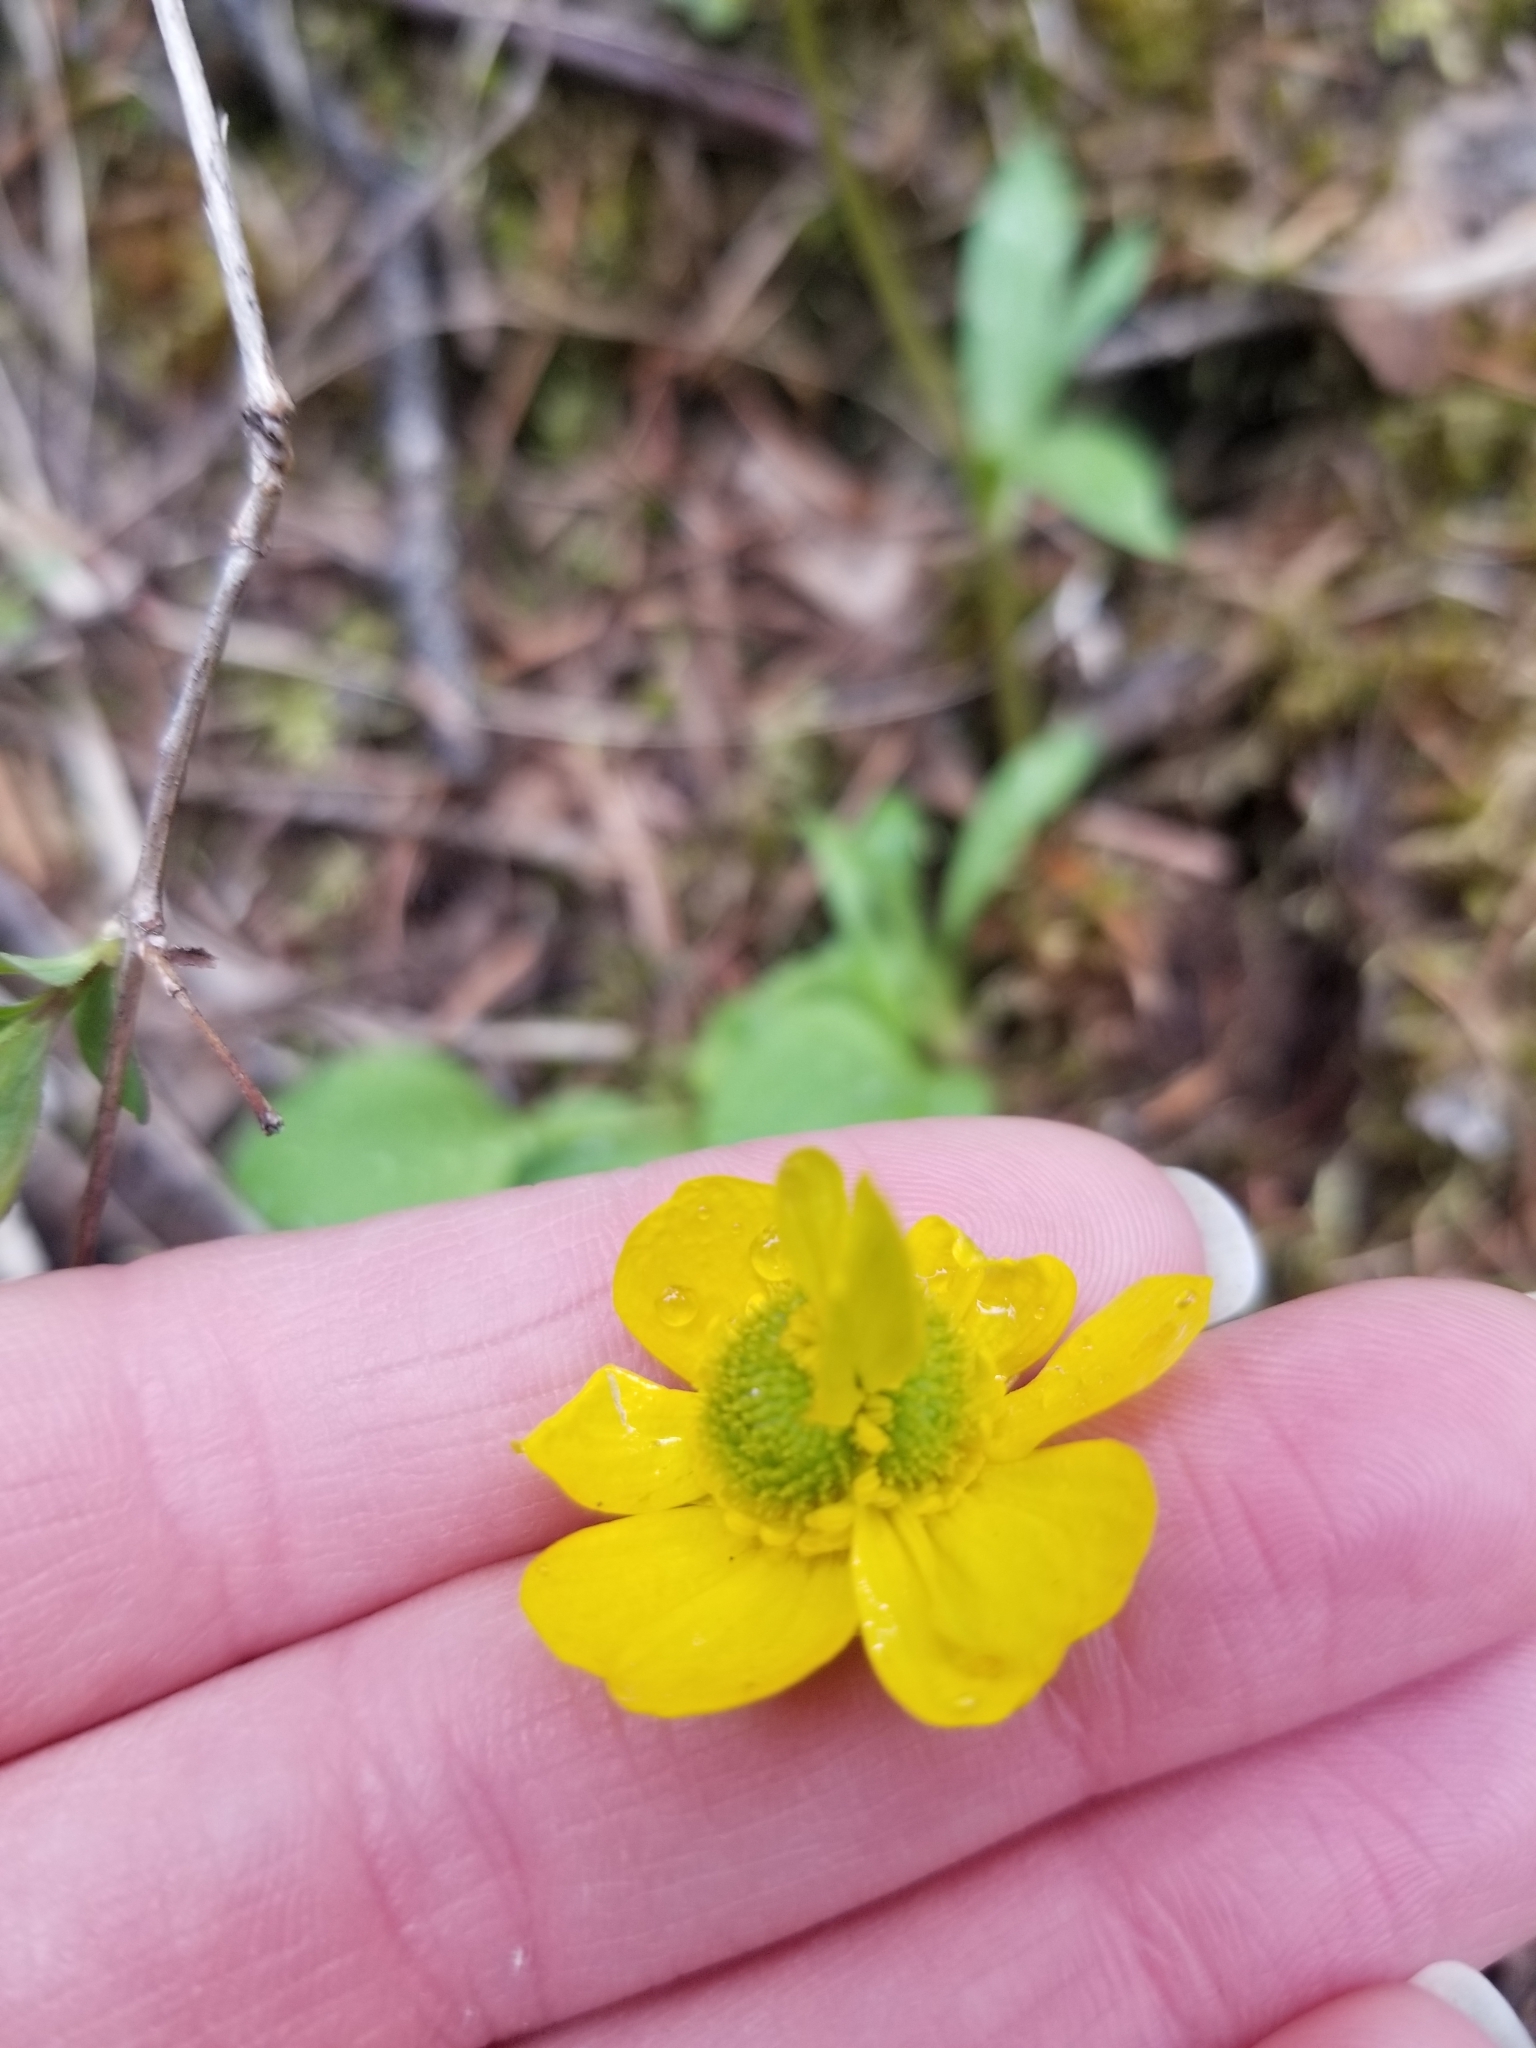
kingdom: Plantae
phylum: Tracheophyta
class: Magnoliopsida
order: Ranunculales
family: Ranunculaceae
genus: Ranunculus
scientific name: Ranunculus glaberrimus
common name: Sagebrush buttercup
